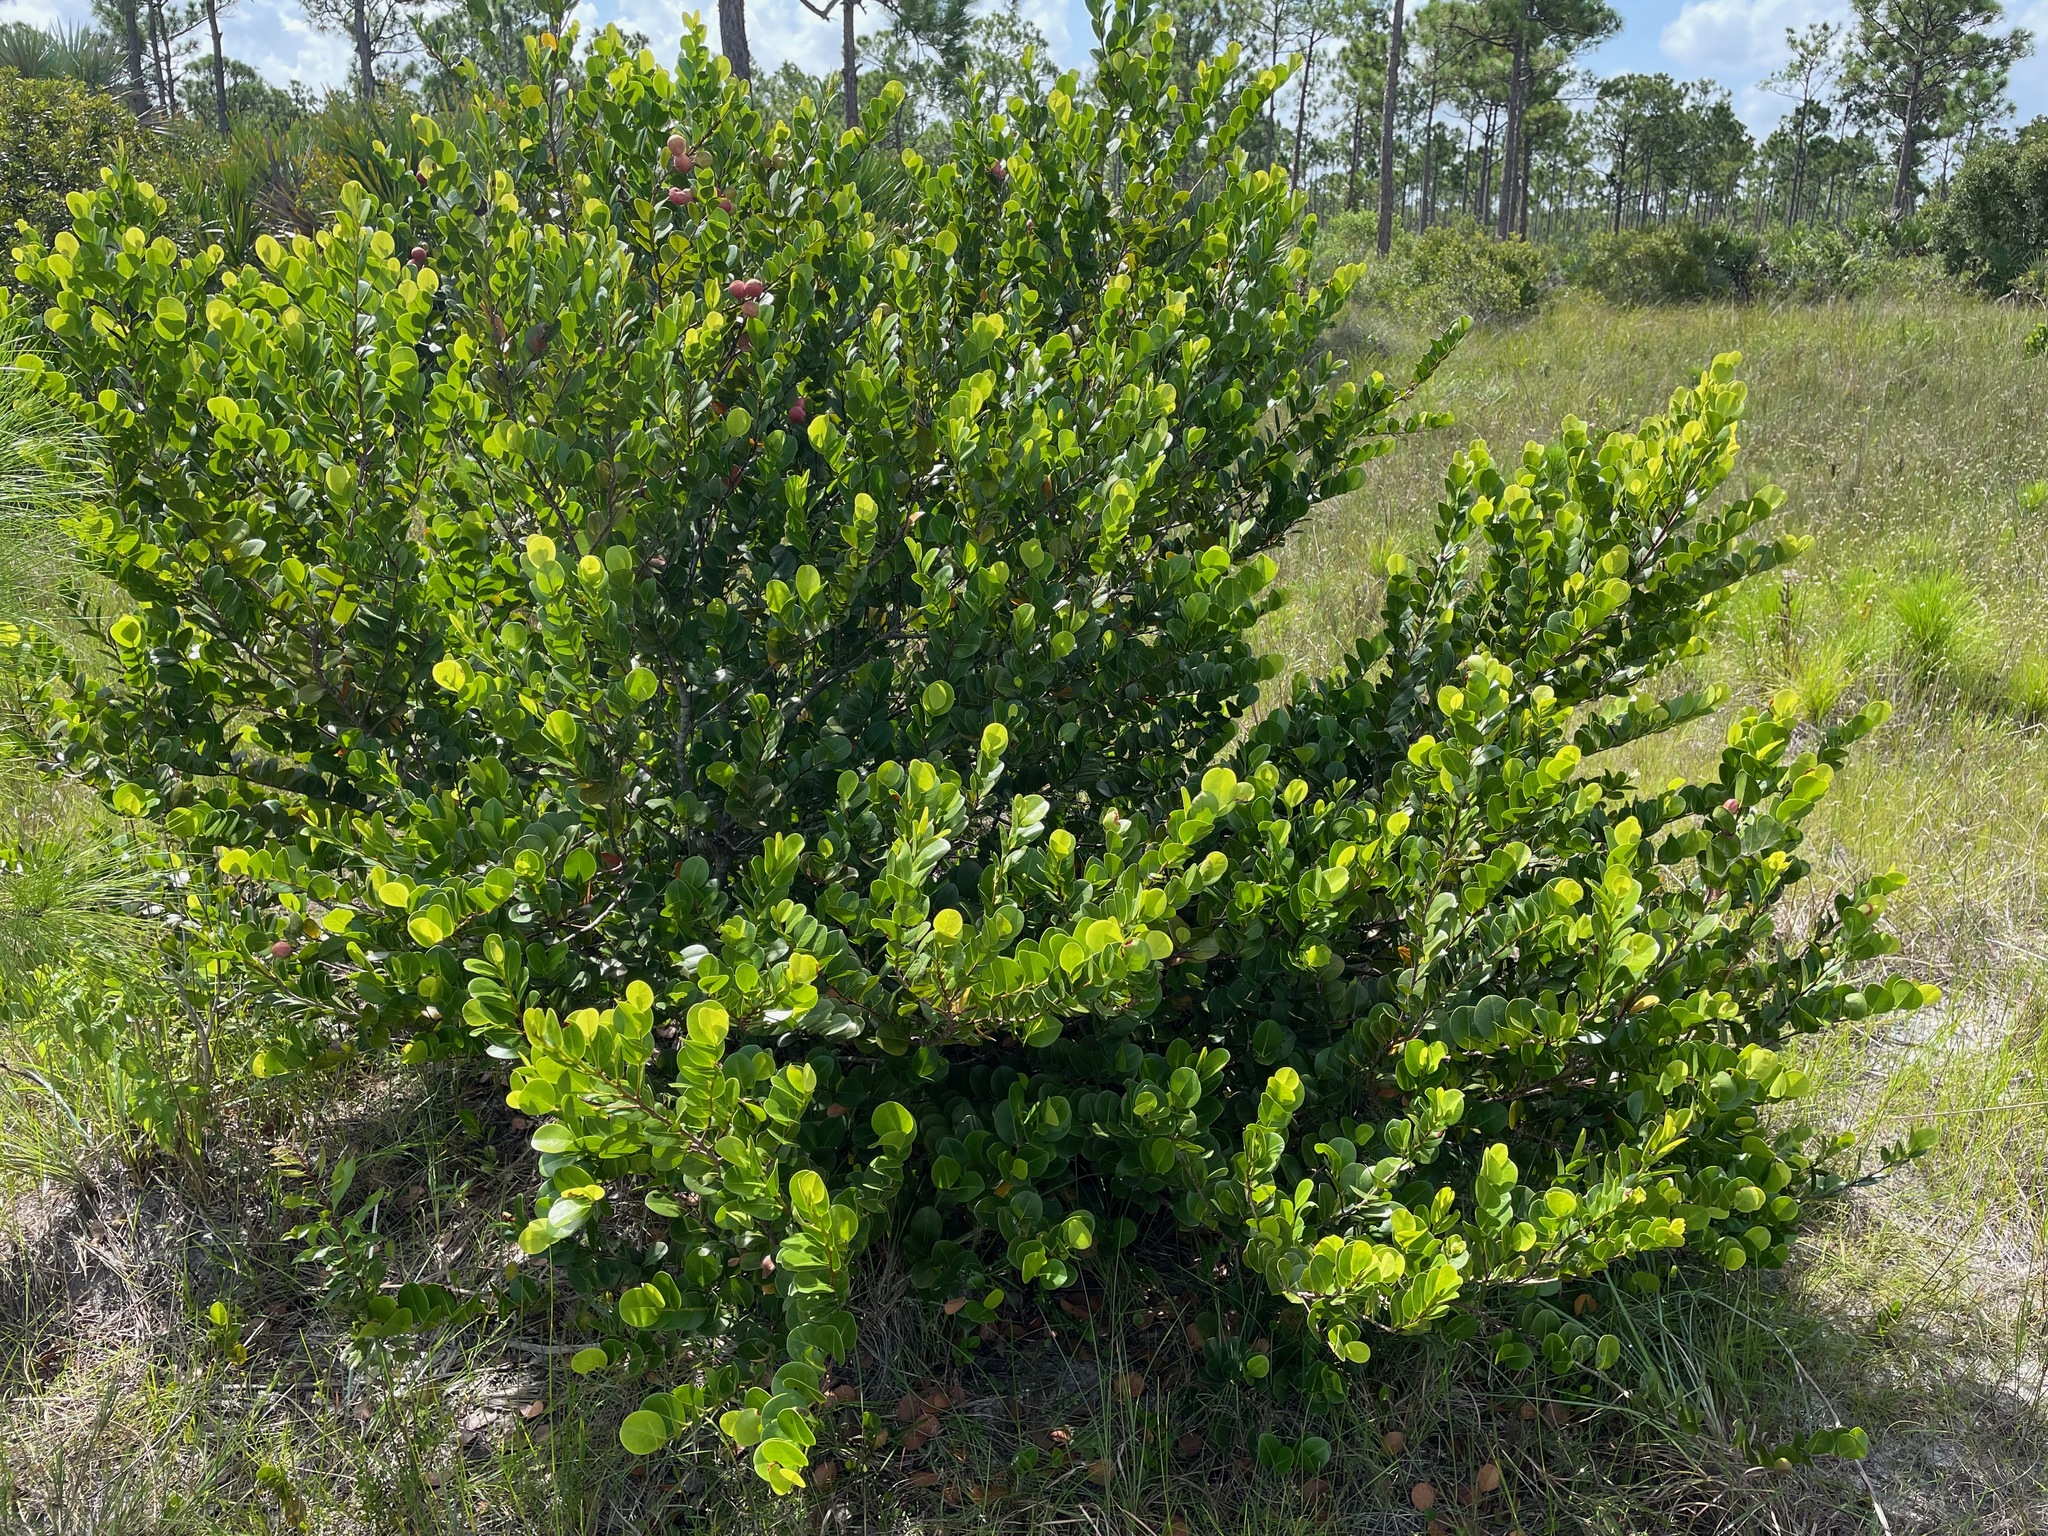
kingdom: Plantae
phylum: Tracheophyta
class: Magnoliopsida
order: Malpighiales
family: Chrysobalanaceae
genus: Chrysobalanus
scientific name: Chrysobalanus icaco
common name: Coco plum
